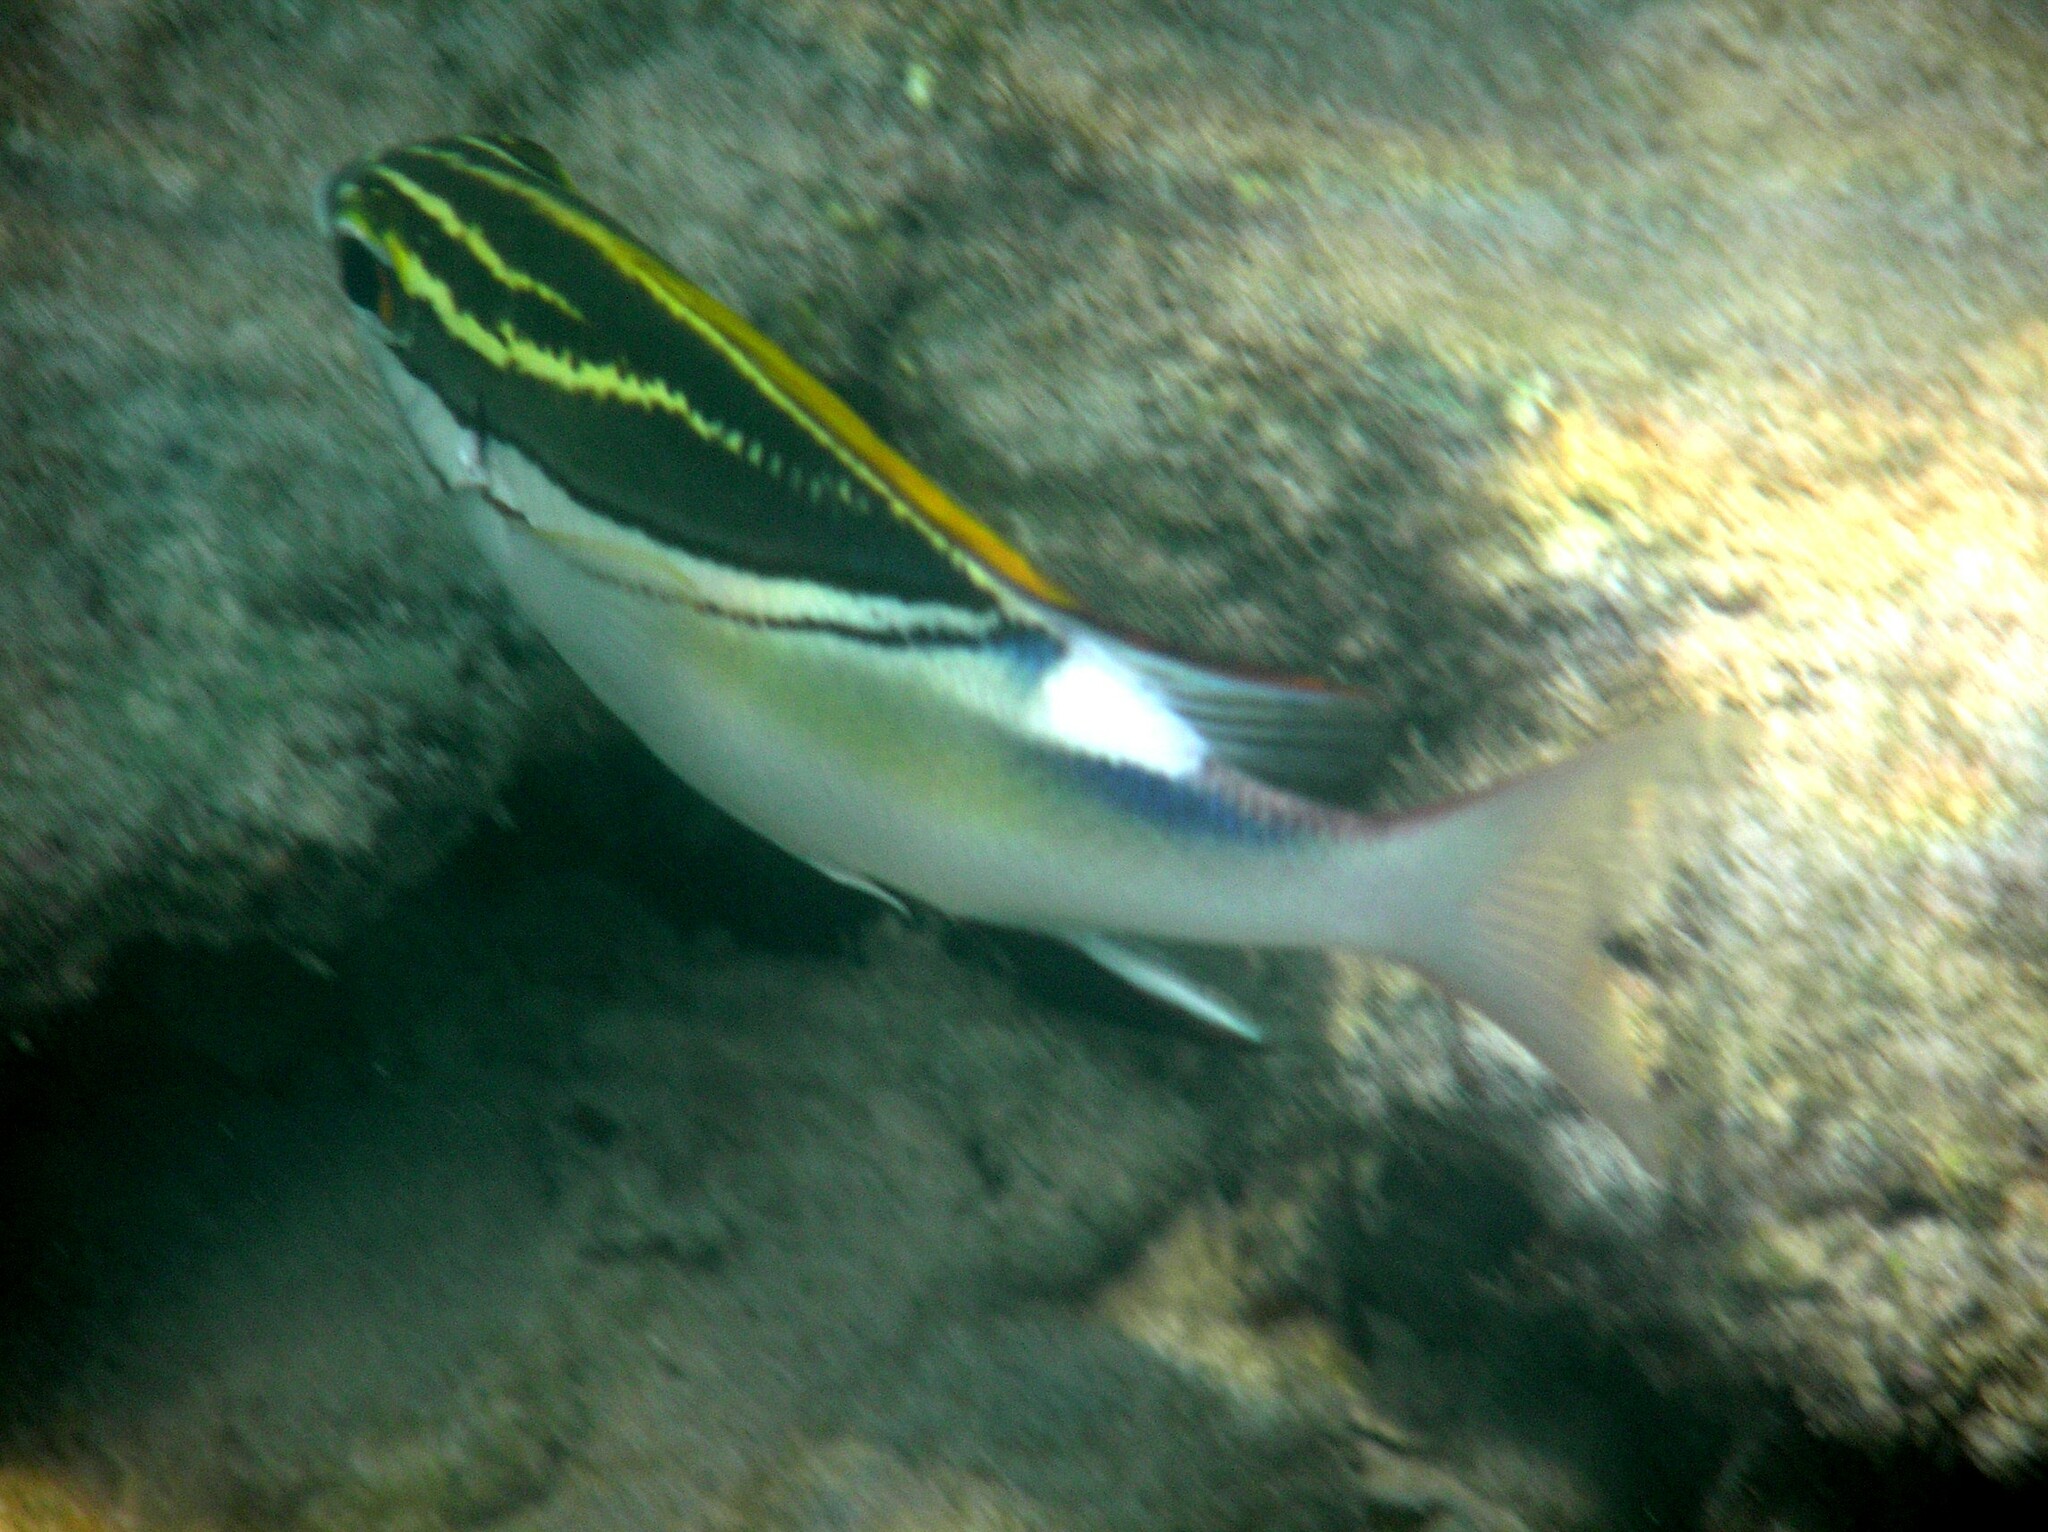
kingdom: Animalia
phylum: Chordata
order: Perciformes
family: Nemipteridae
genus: Scolopsis
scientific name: Scolopsis bilineata
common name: Two-lined monocle bream
